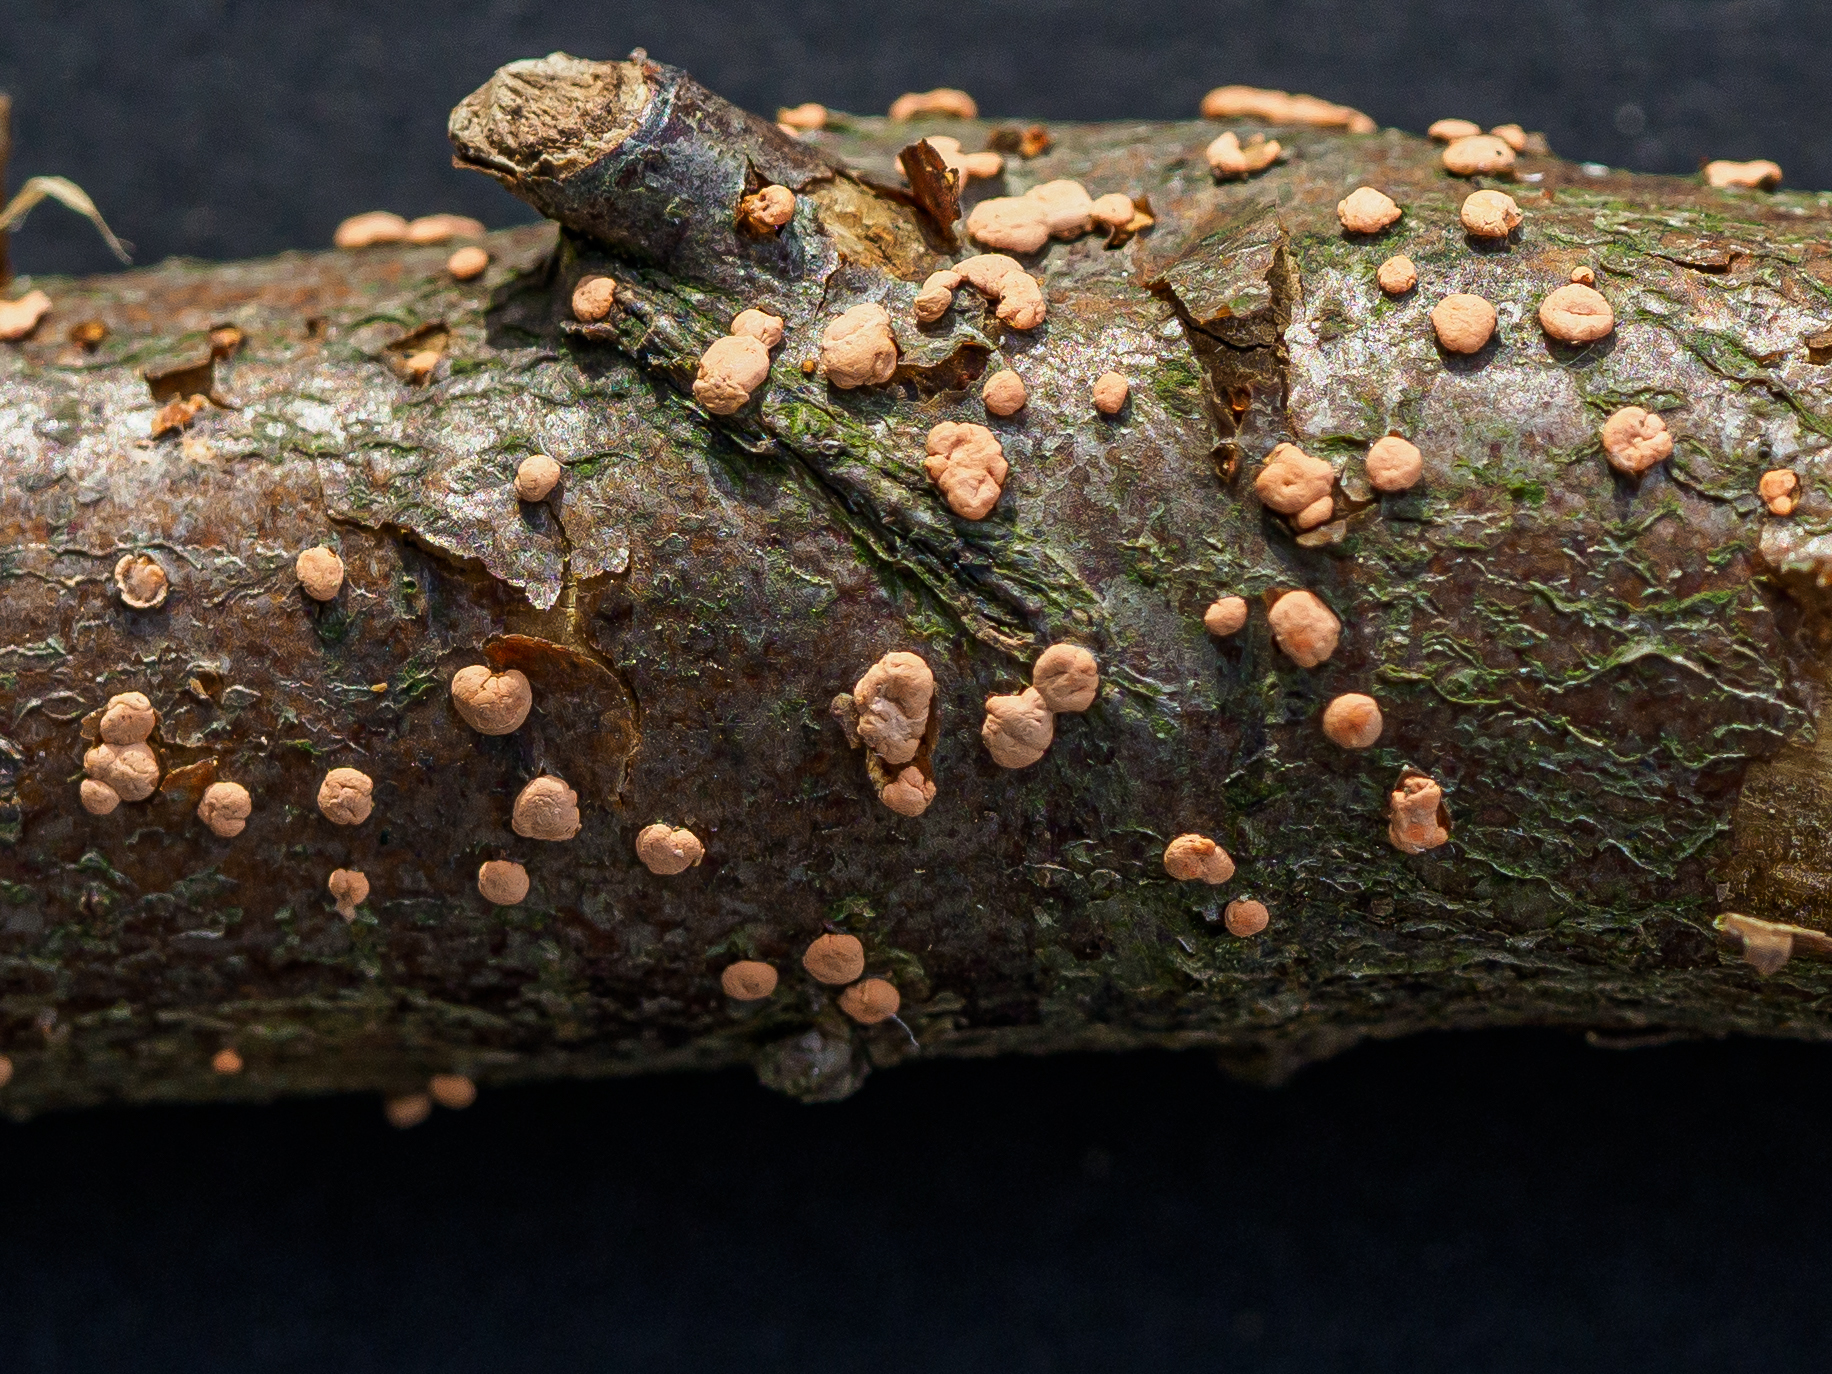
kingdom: Fungi
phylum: Ascomycota
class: Sordariomycetes
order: Hypocreales
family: Nectriaceae
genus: Nectria
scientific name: Nectria cinnabarina
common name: Coral spot
